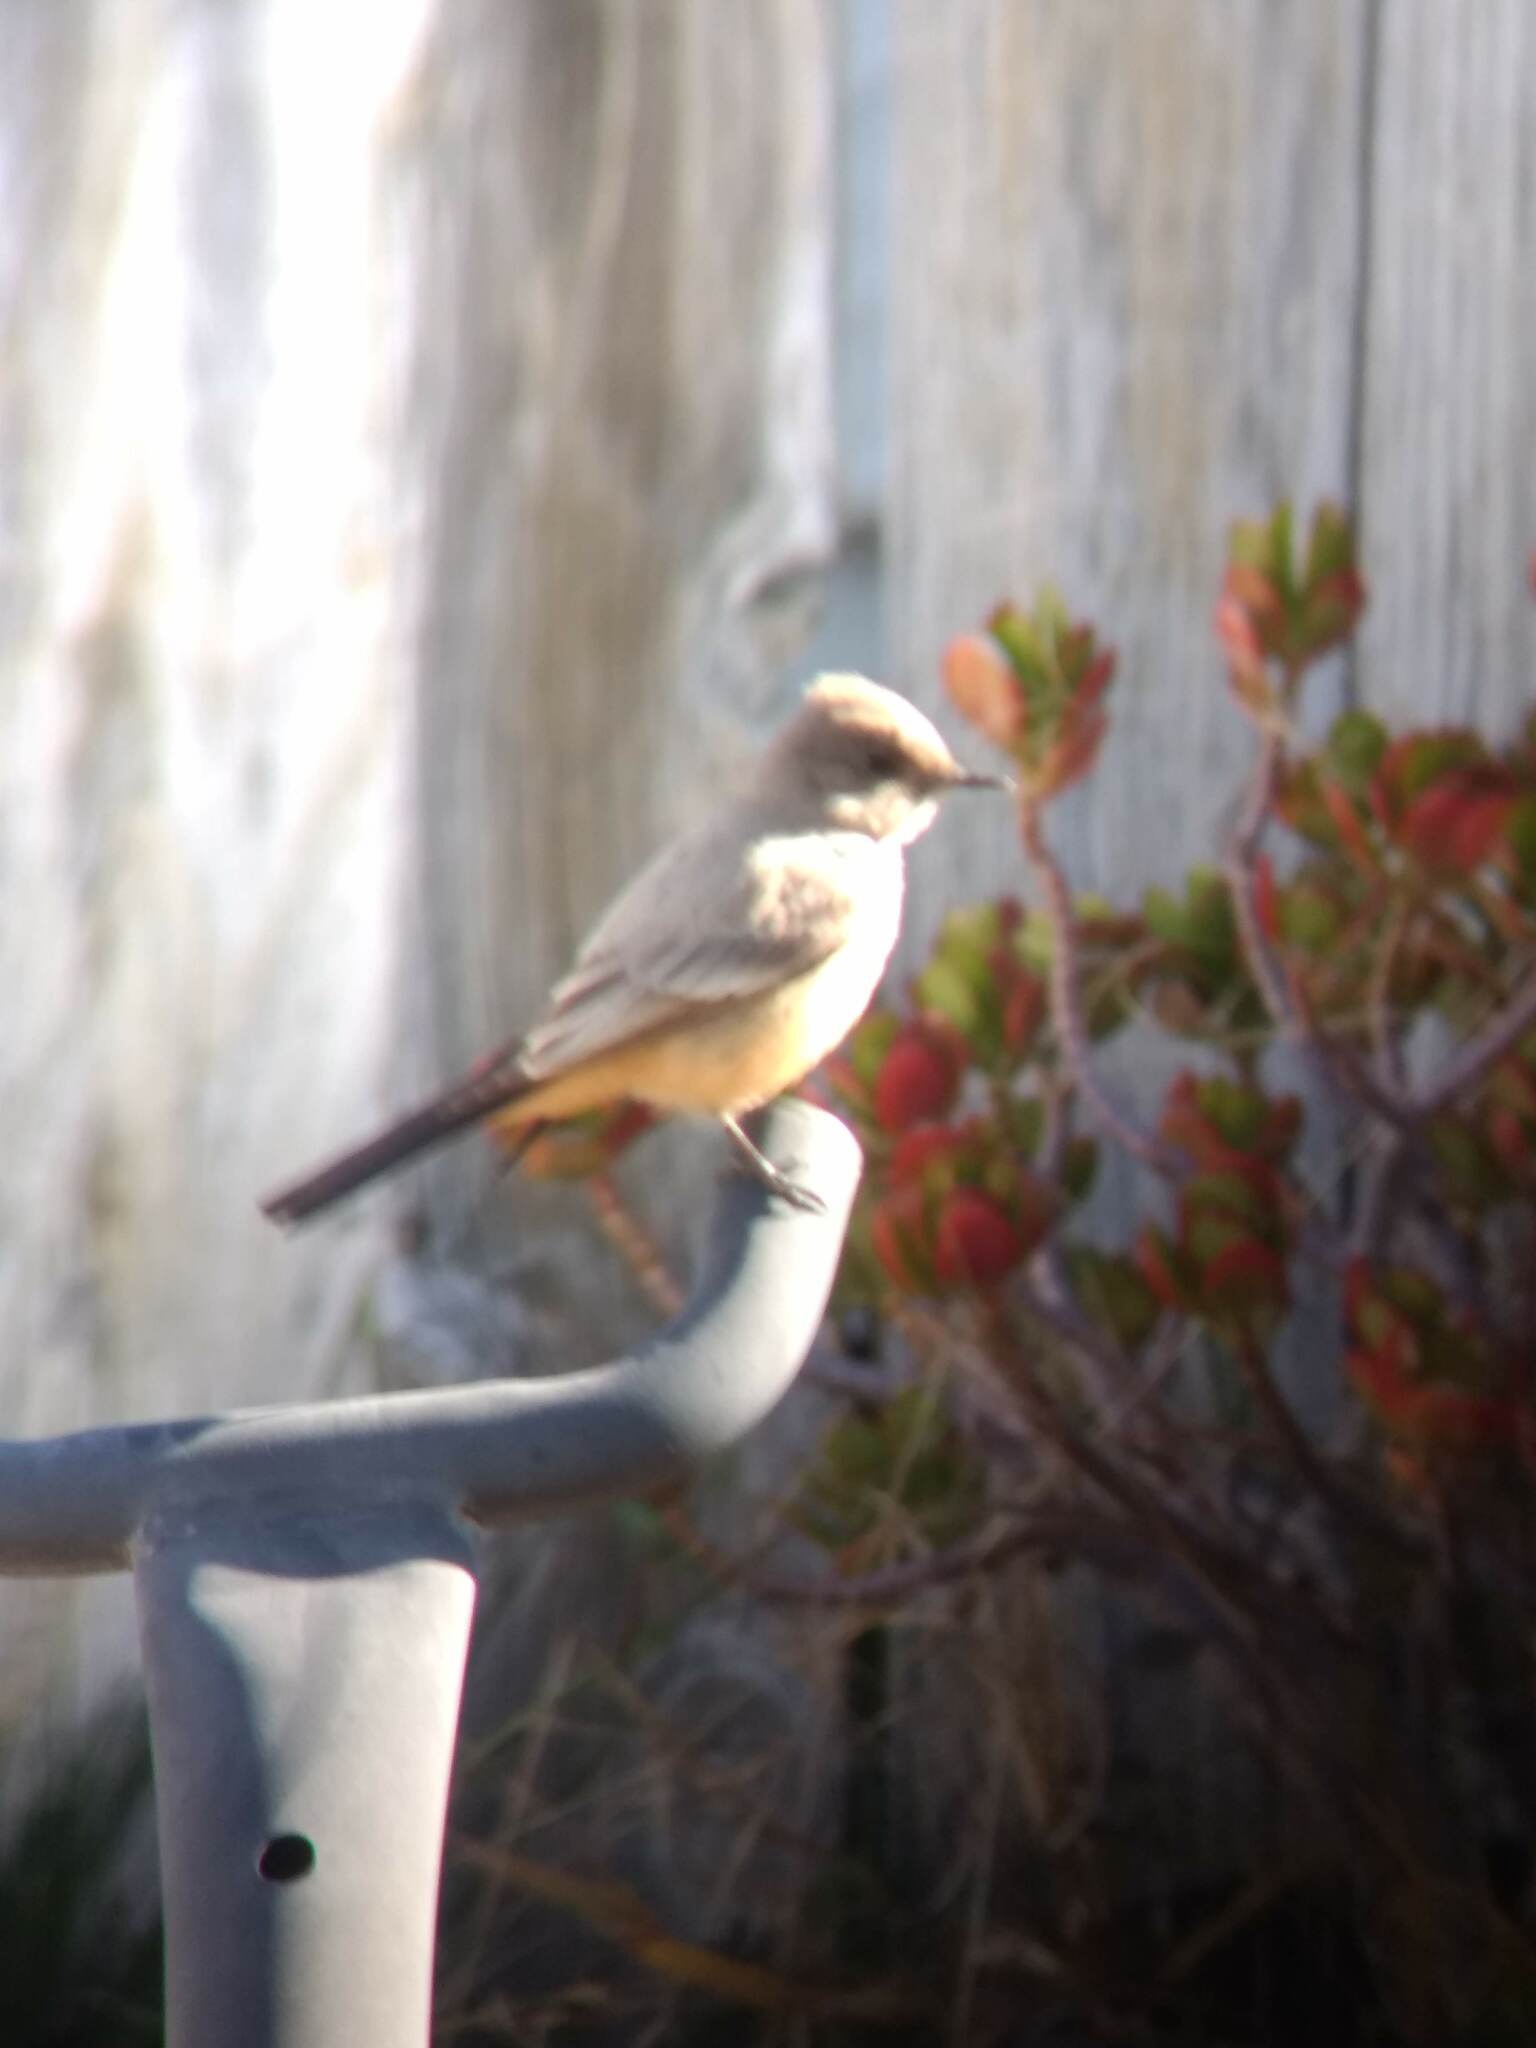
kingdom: Animalia
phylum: Chordata
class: Aves
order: Passeriformes
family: Tyrannidae
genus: Sayornis
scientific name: Sayornis saya
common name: Say's phoebe
